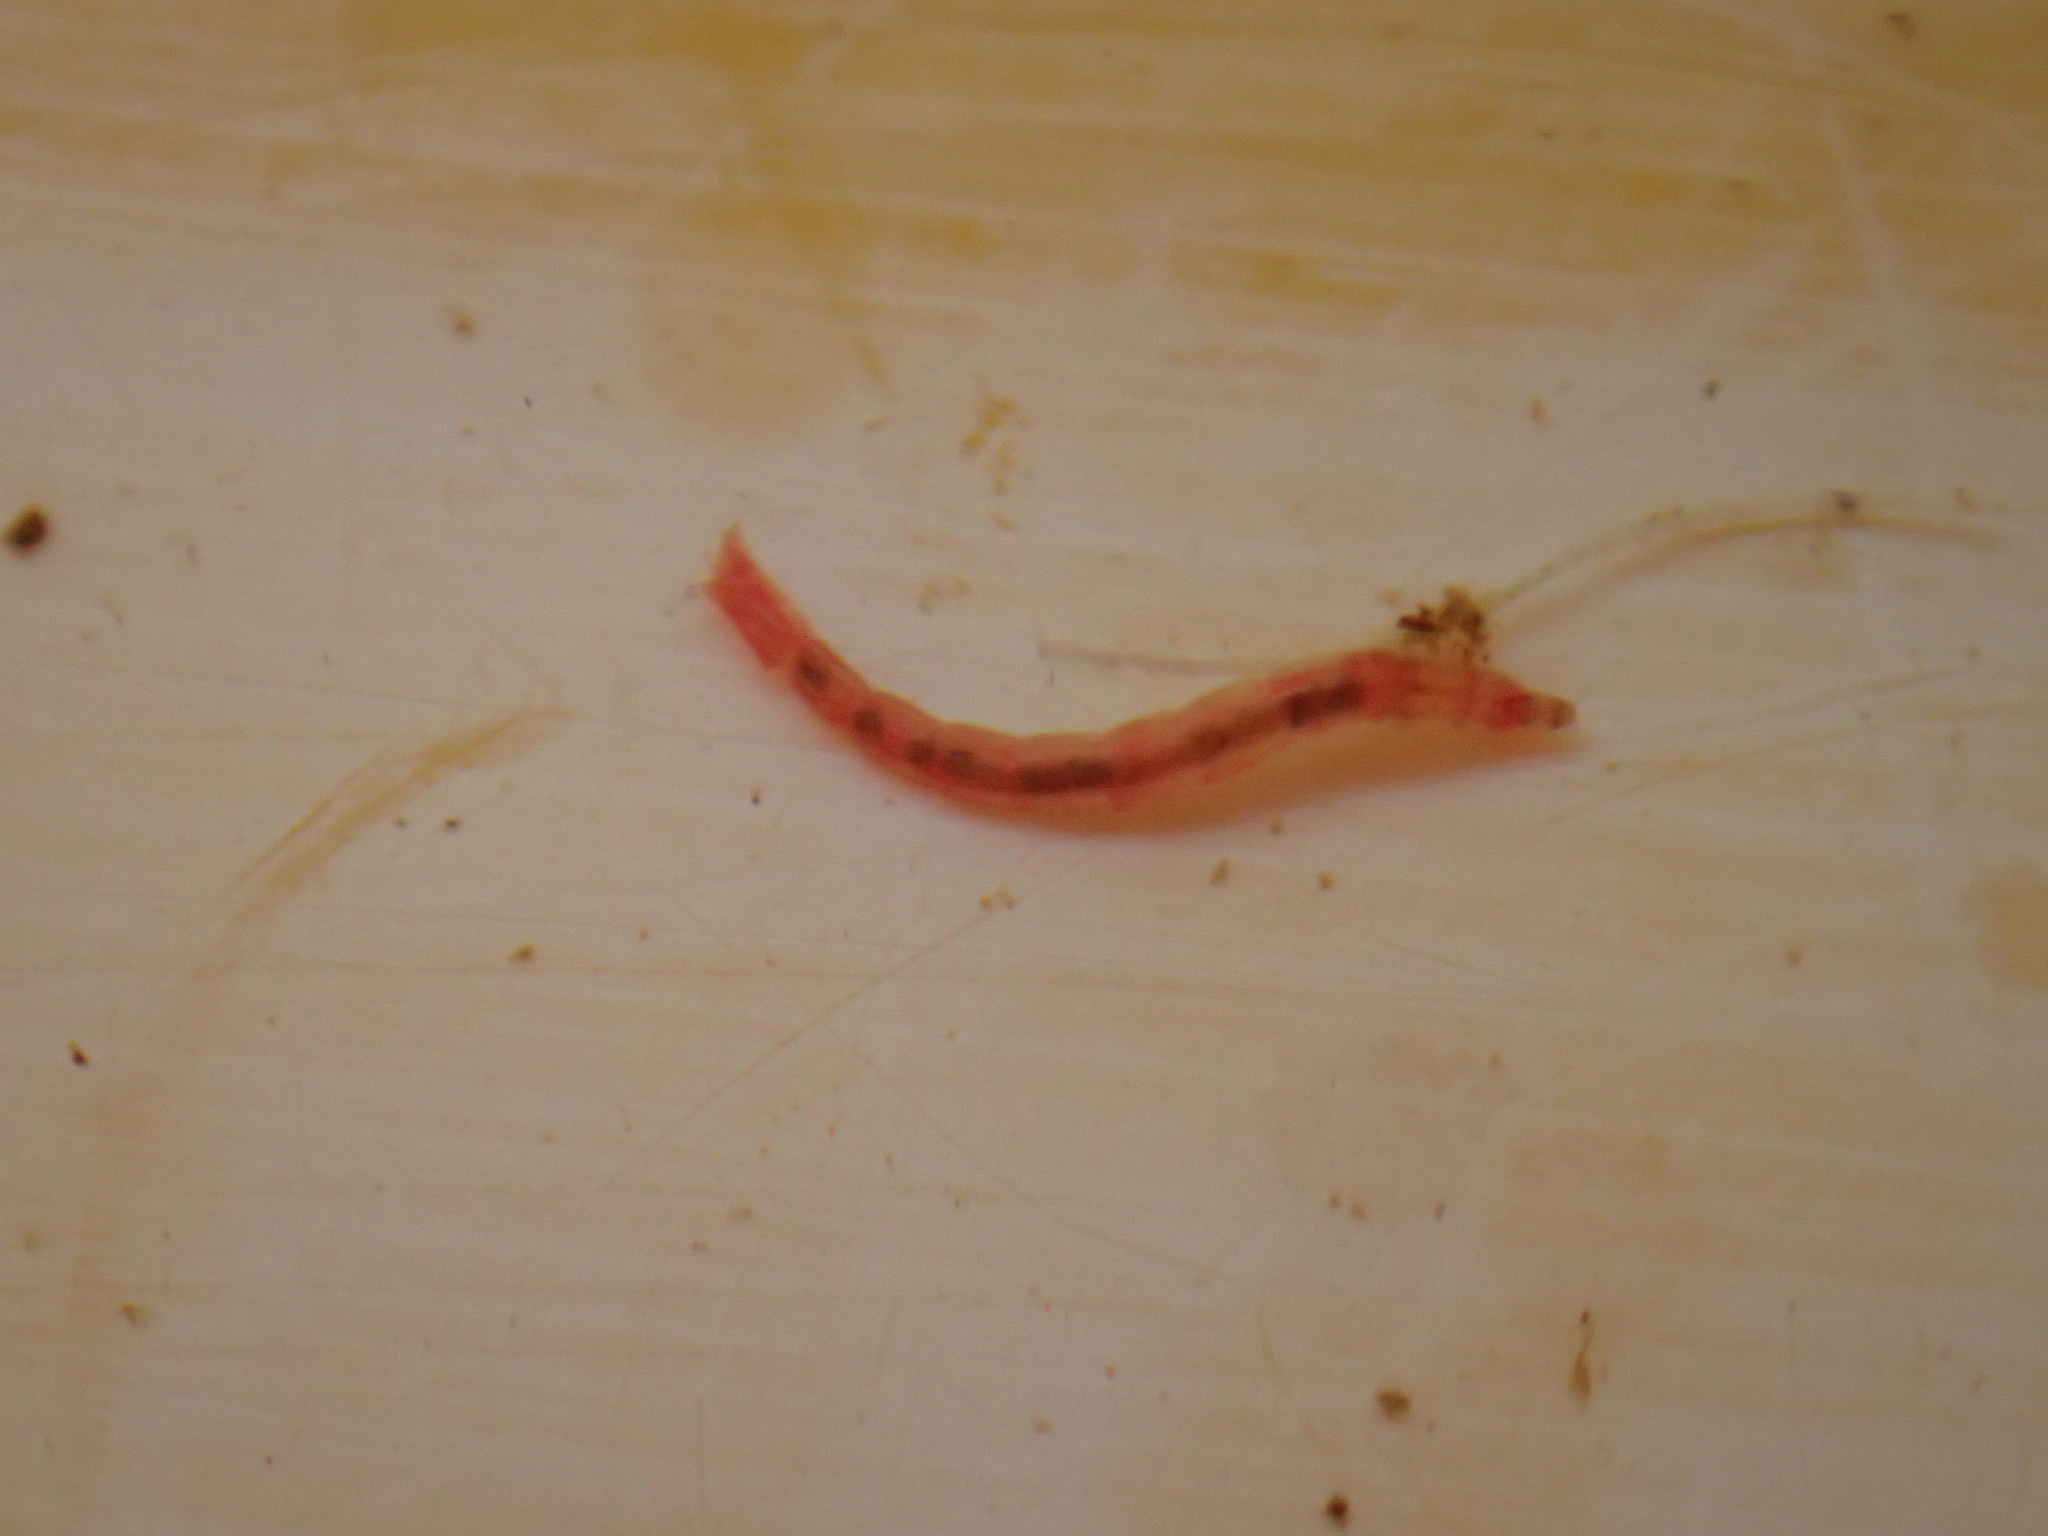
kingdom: Animalia
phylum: Arthropoda
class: Insecta
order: Diptera
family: Chironomidae
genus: Micropsectra
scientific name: Micropsectra subletteorum
